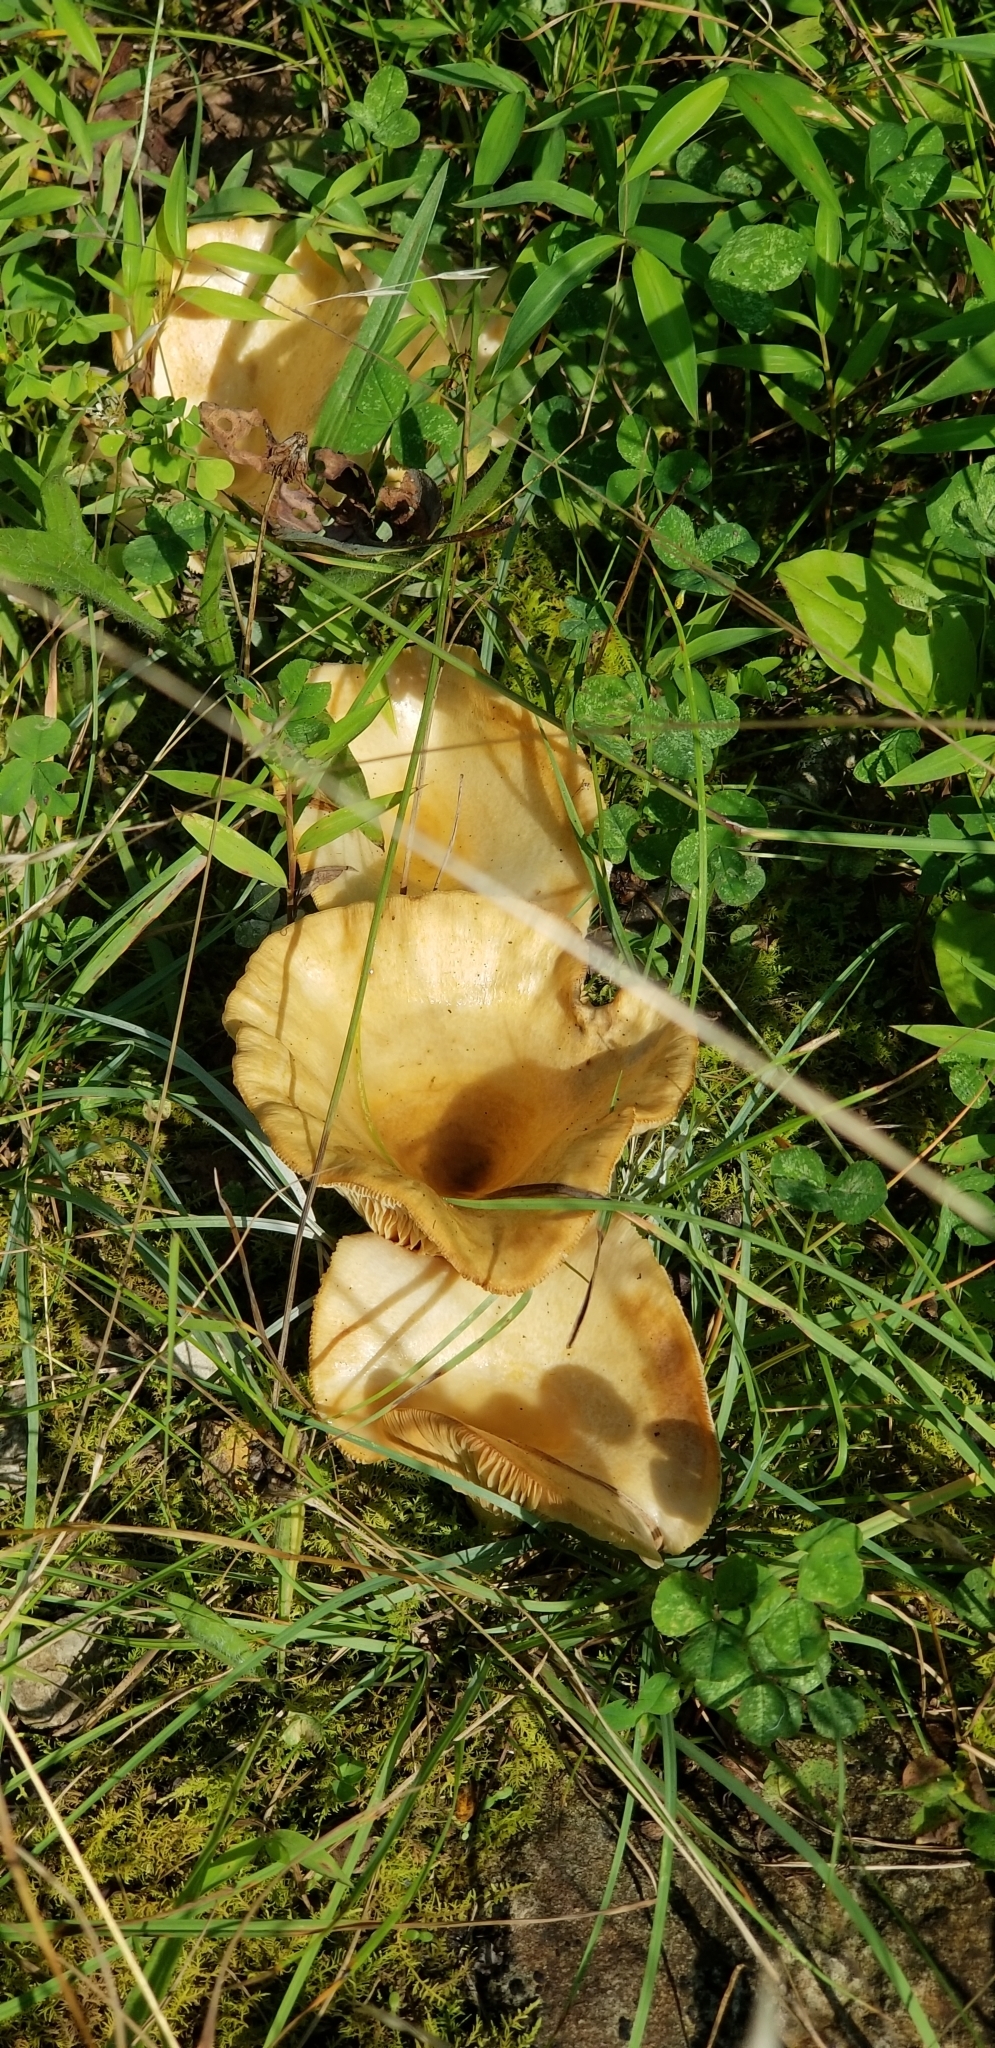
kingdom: Fungi
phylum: Basidiomycota
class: Agaricomycetes
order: Agaricales
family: Pleurotaceae
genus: Hohenbuehelia
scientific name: Hohenbuehelia petaloides
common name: Shoehorn oyster
